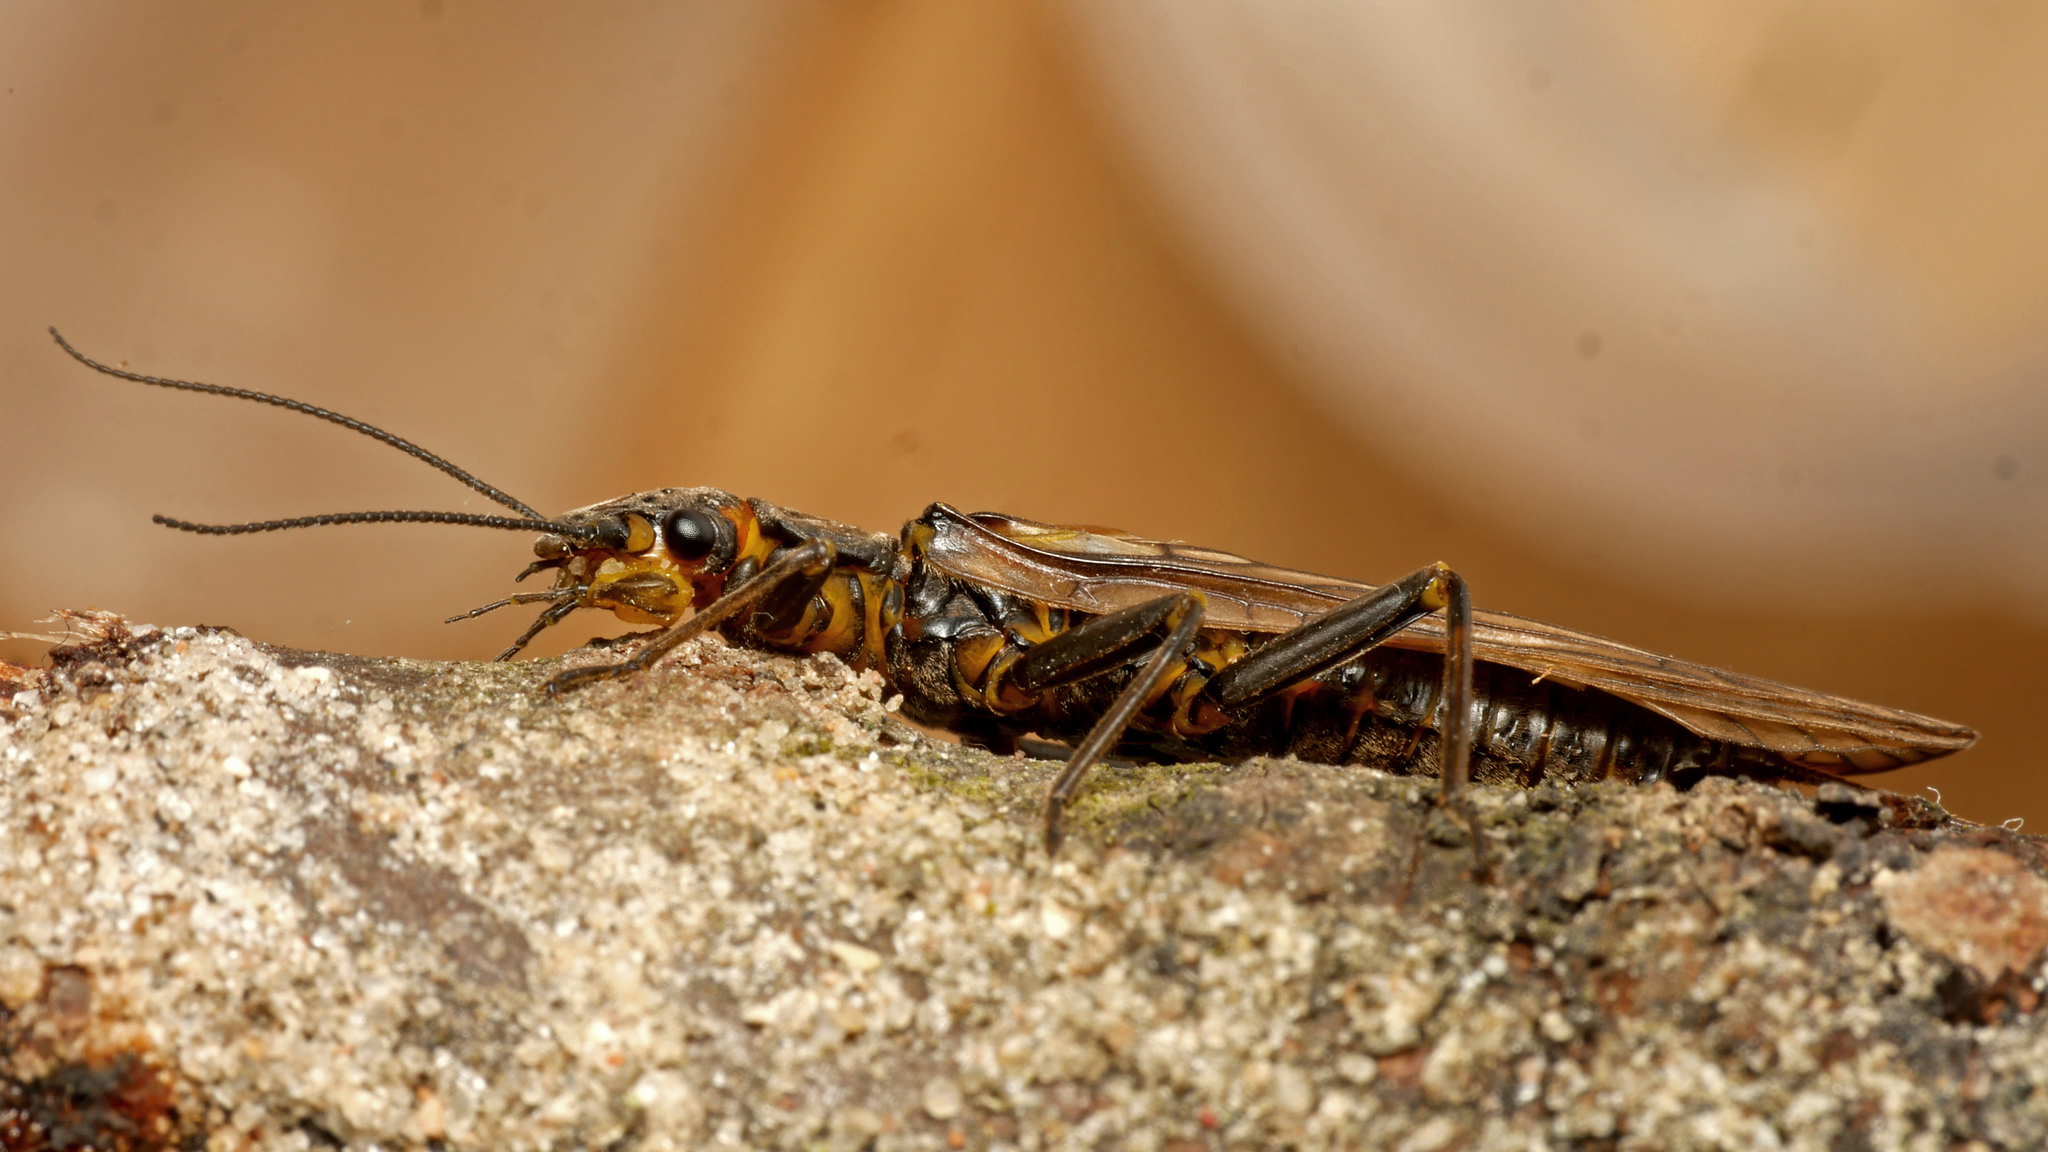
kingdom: Animalia
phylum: Arthropoda
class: Insecta
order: Plecoptera
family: Perlodidae
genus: Perlodes
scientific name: Perlodes microcephalus
